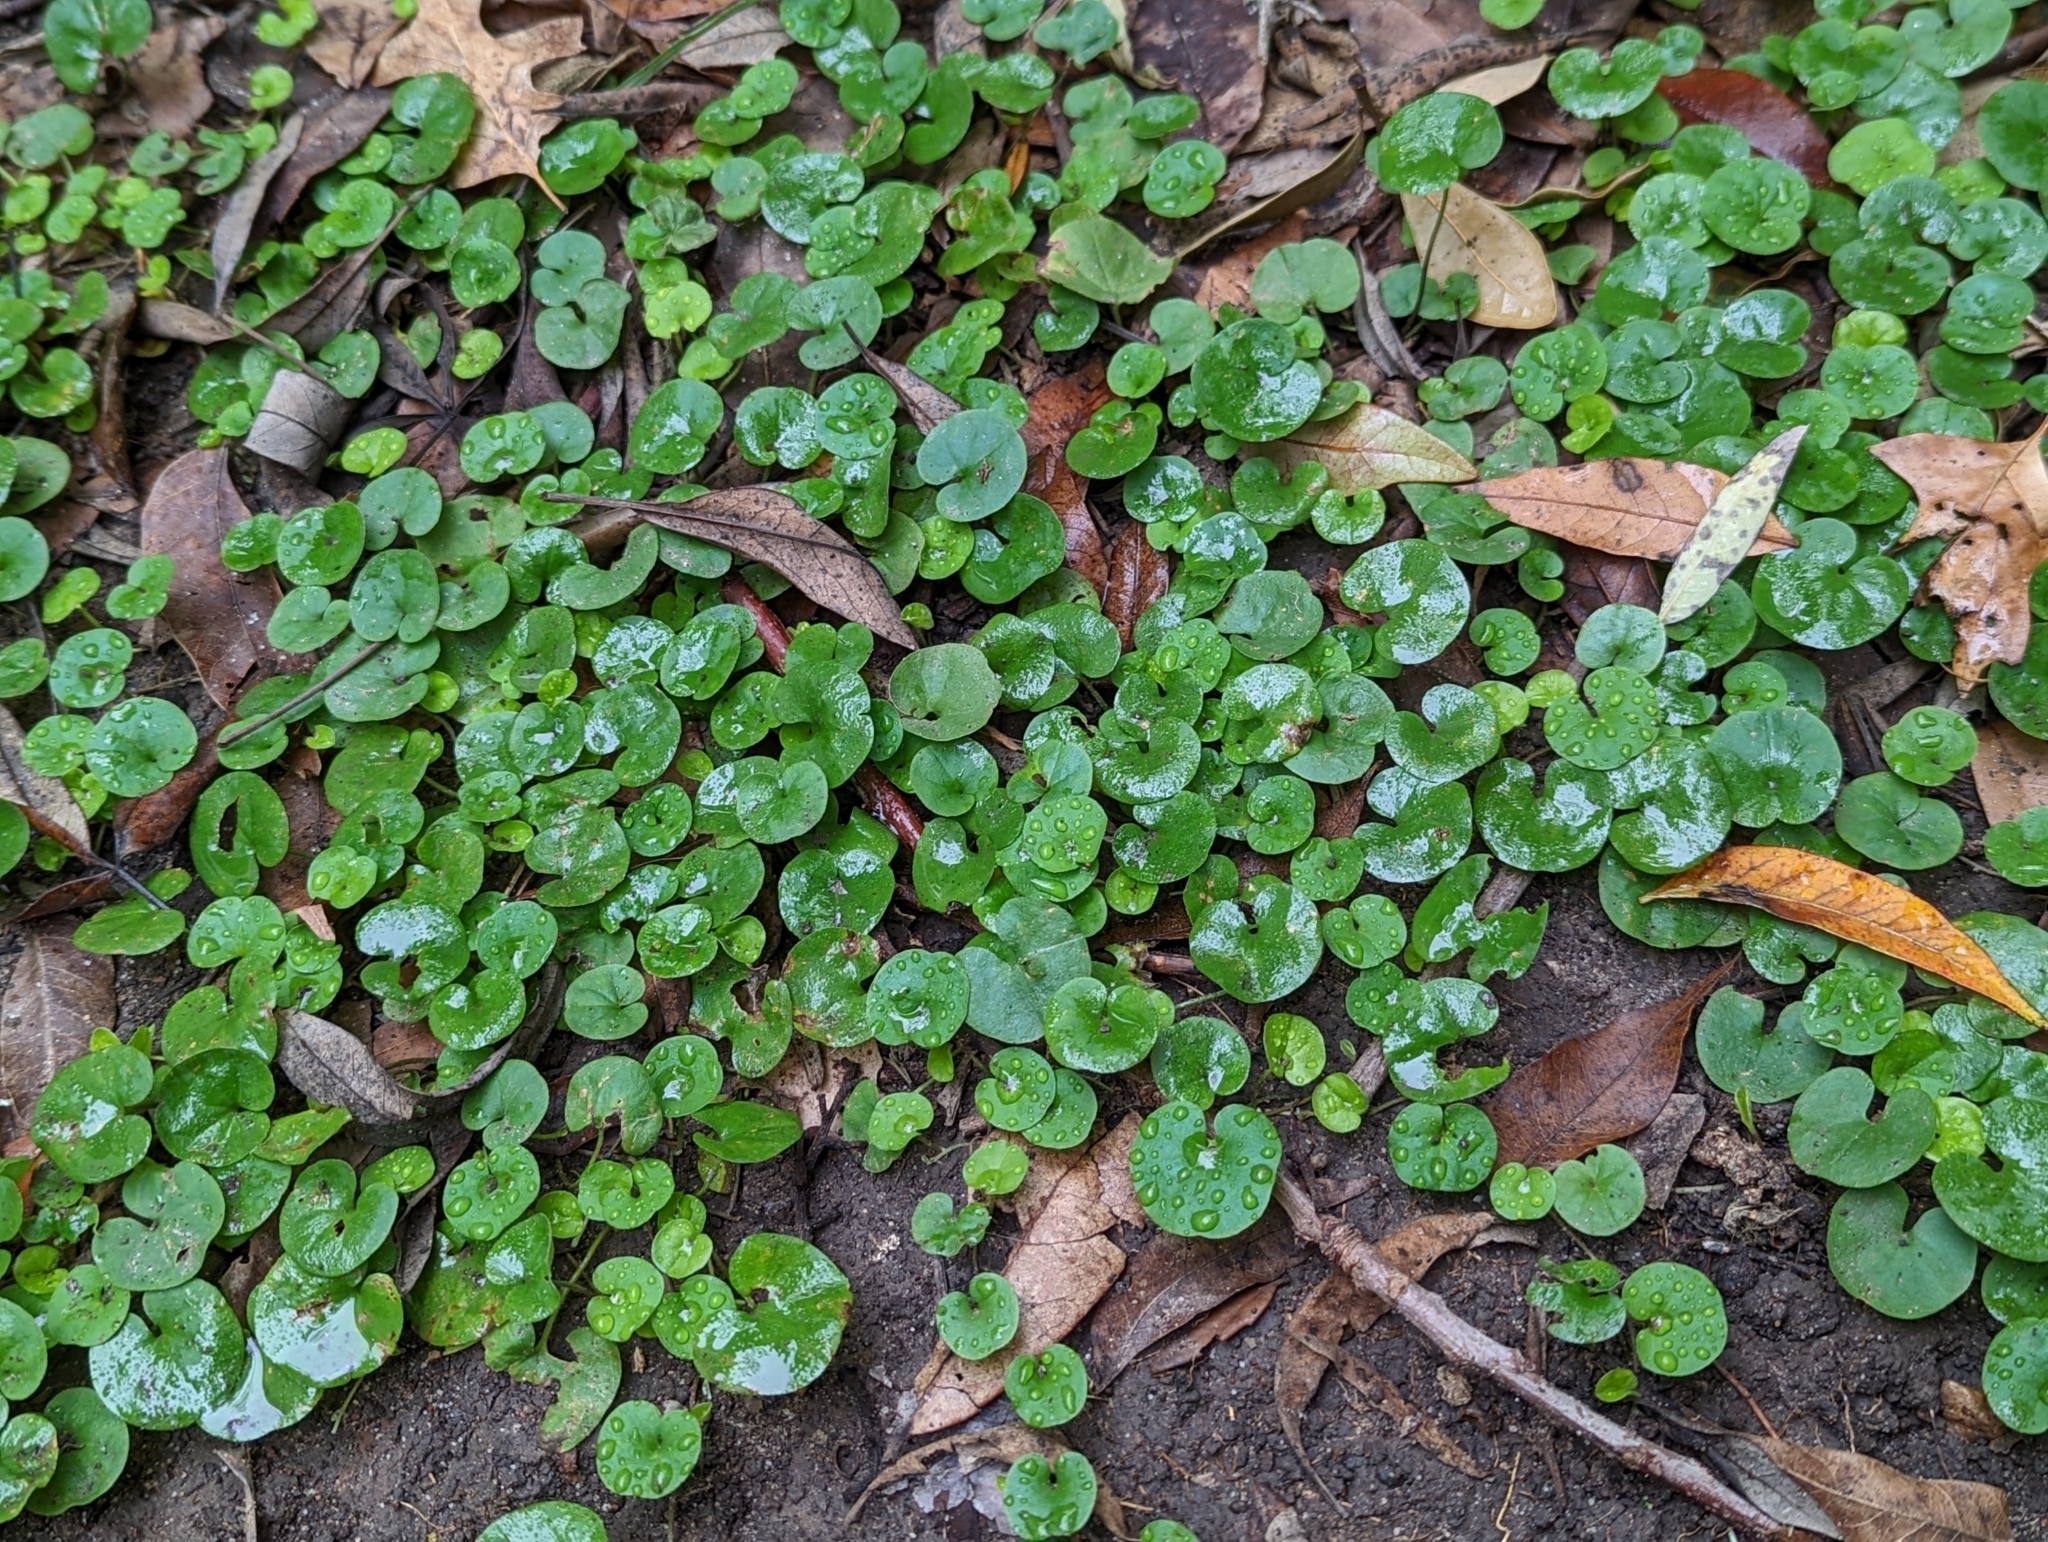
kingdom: Plantae
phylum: Tracheophyta
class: Magnoliopsida
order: Solanales
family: Convolvulaceae
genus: Dichondra
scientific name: Dichondra carolinensis
